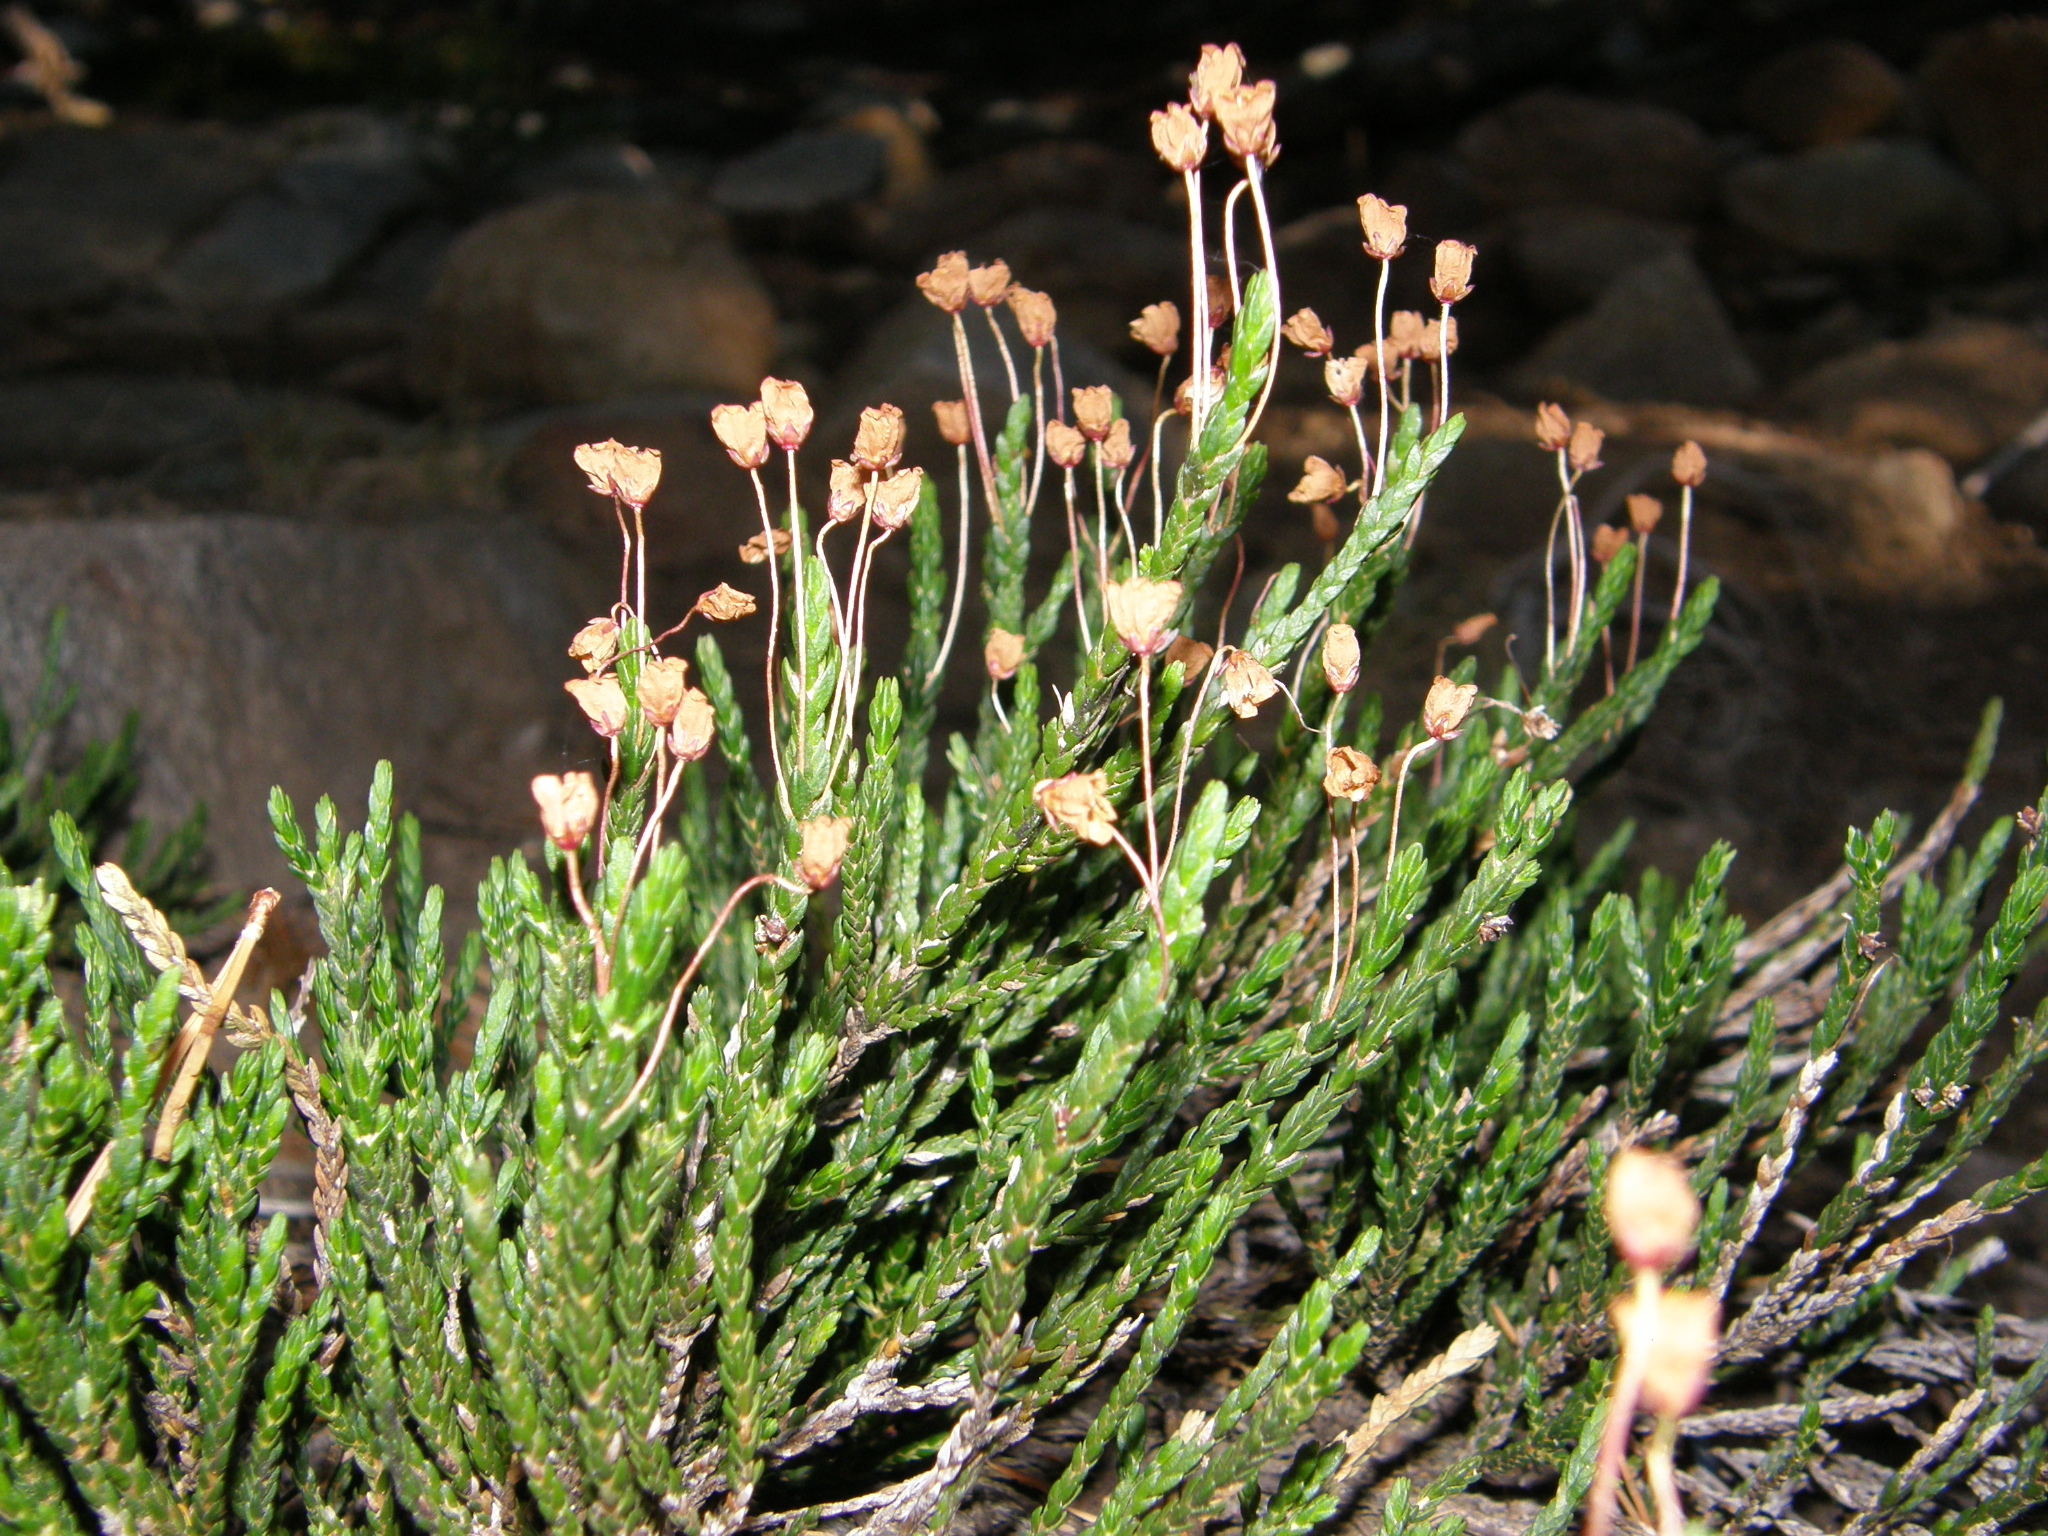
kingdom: Plantae
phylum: Tracheophyta
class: Magnoliopsida
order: Ericales
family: Ericaceae
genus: Cassiope
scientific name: Cassiope mertensiana
